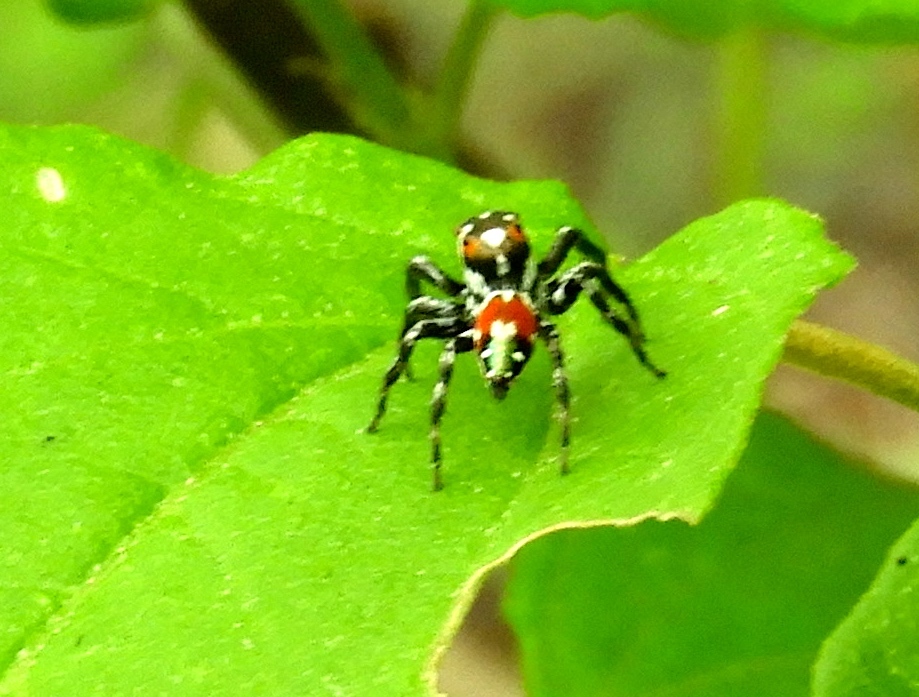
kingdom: Animalia
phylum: Arthropoda
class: Arachnida
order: Araneae
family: Salticidae
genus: Nycerella
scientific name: Nycerella delecta
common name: Jumping spiders
